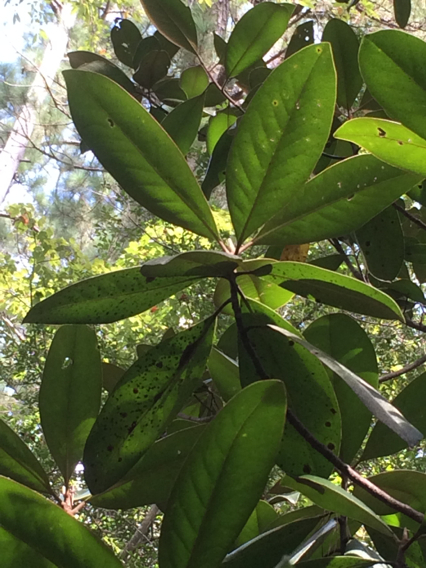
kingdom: Plantae
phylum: Tracheophyta
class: Magnoliopsida
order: Magnoliales
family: Magnoliaceae
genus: Magnolia
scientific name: Magnolia grandiflora
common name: Southern magnolia
